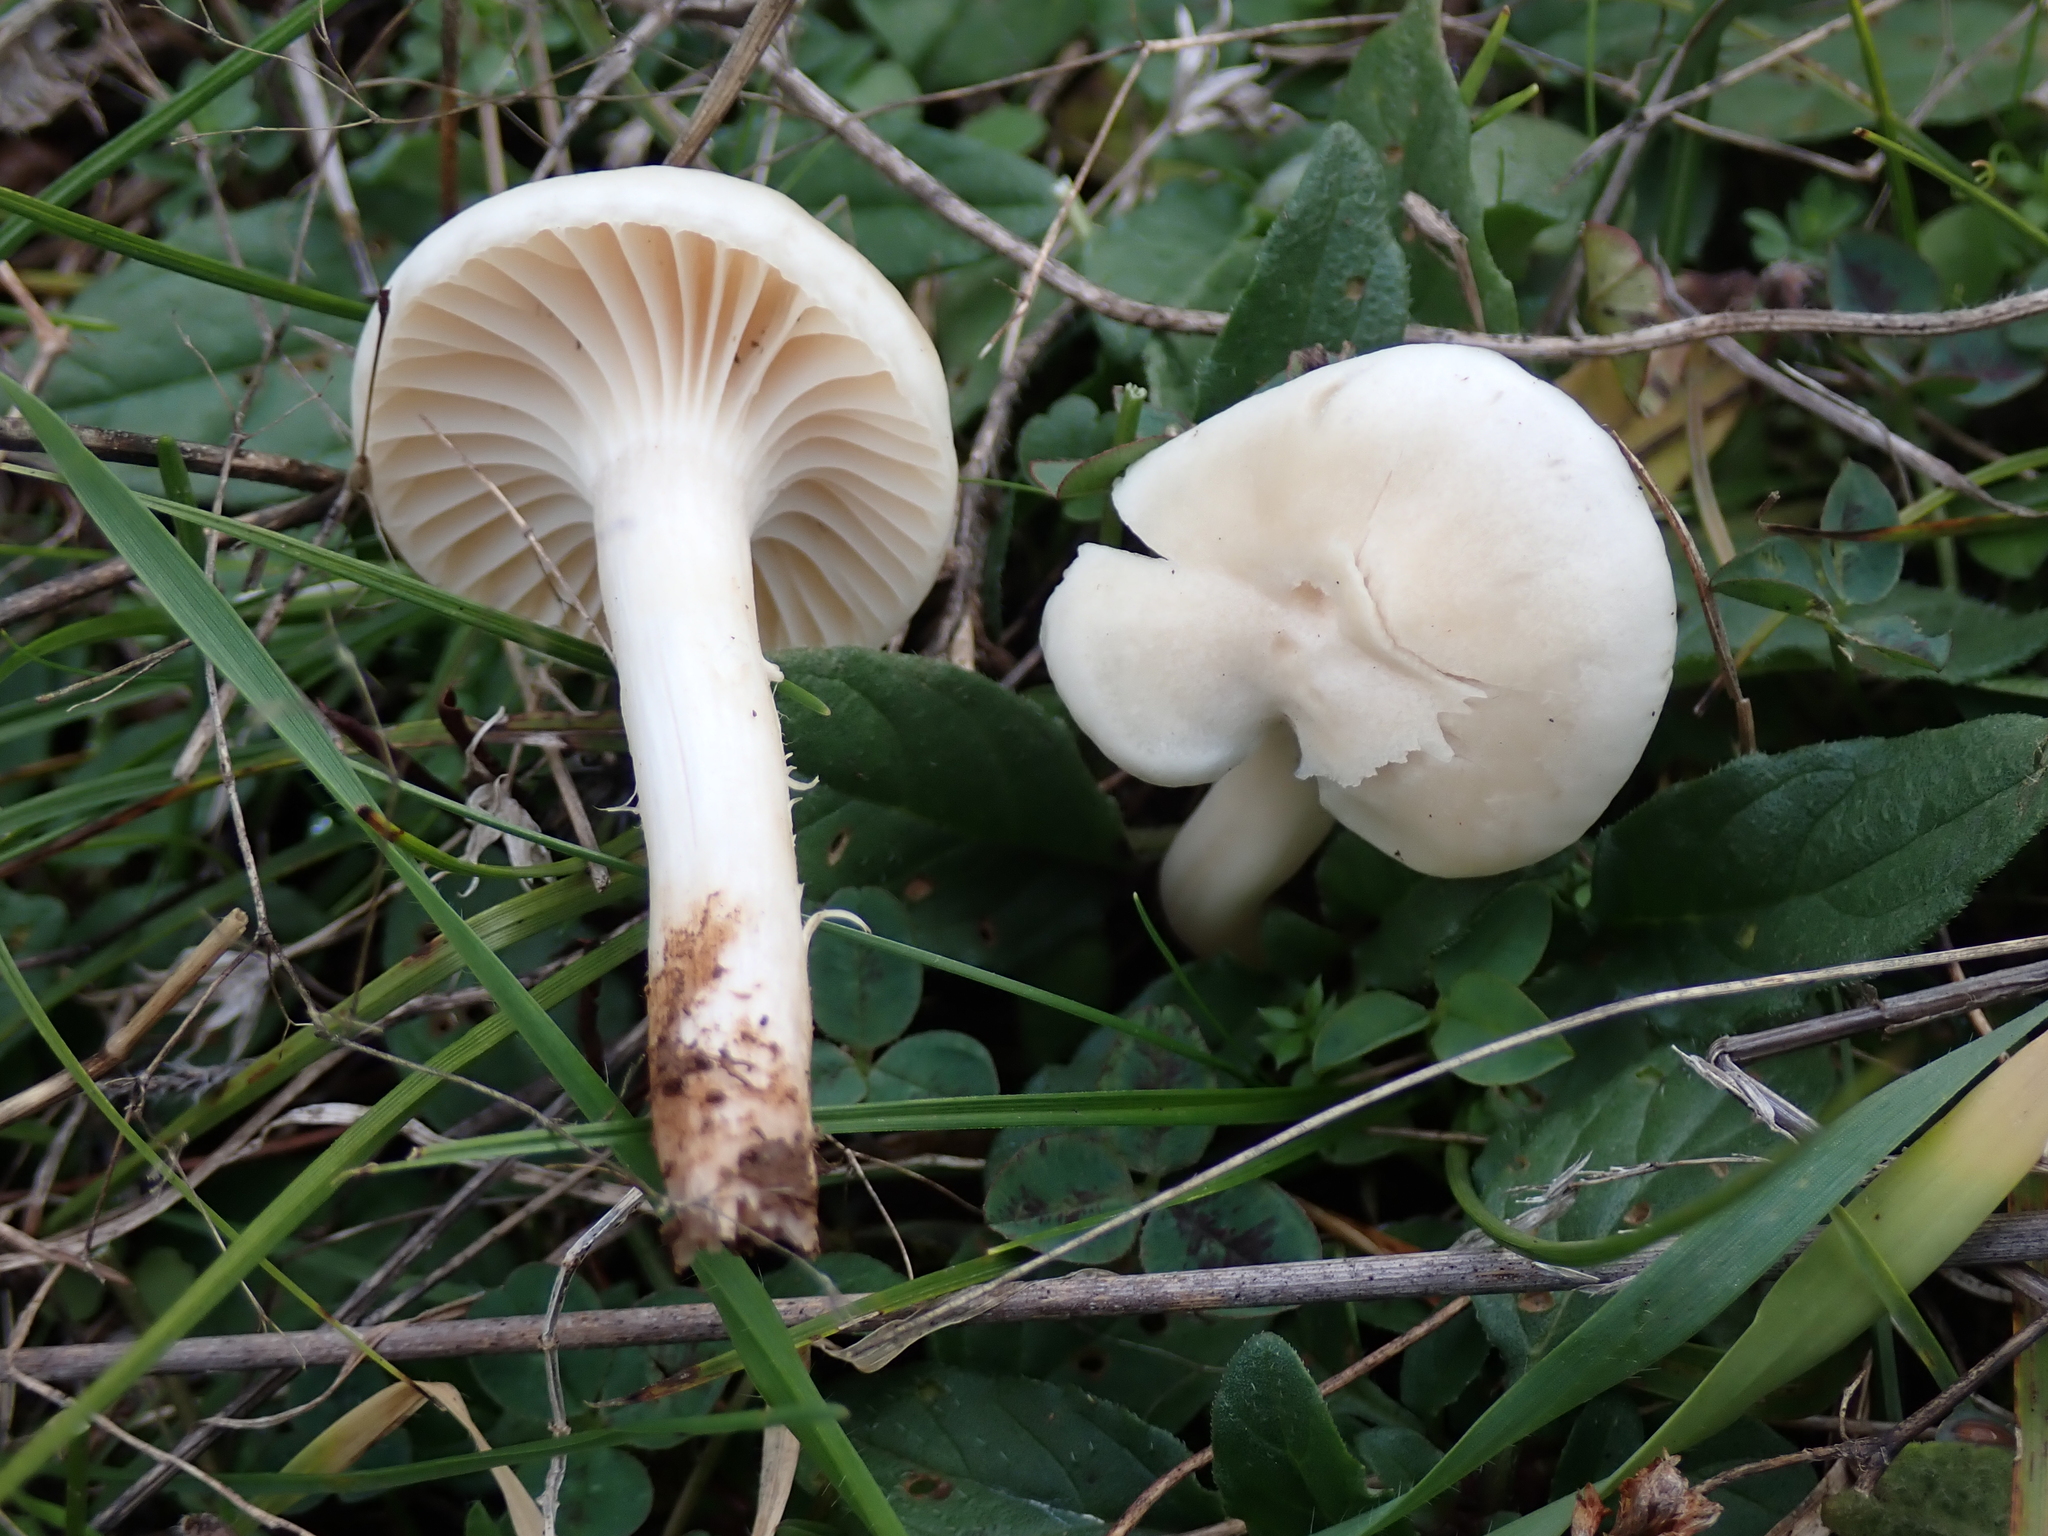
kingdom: Fungi
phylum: Basidiomycota
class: Agaricomycetes
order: Agaricales
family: Hygrophoraceae
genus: Cuphophyllus
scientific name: Cuphophyllus virgineus
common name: Snowy waxcap
